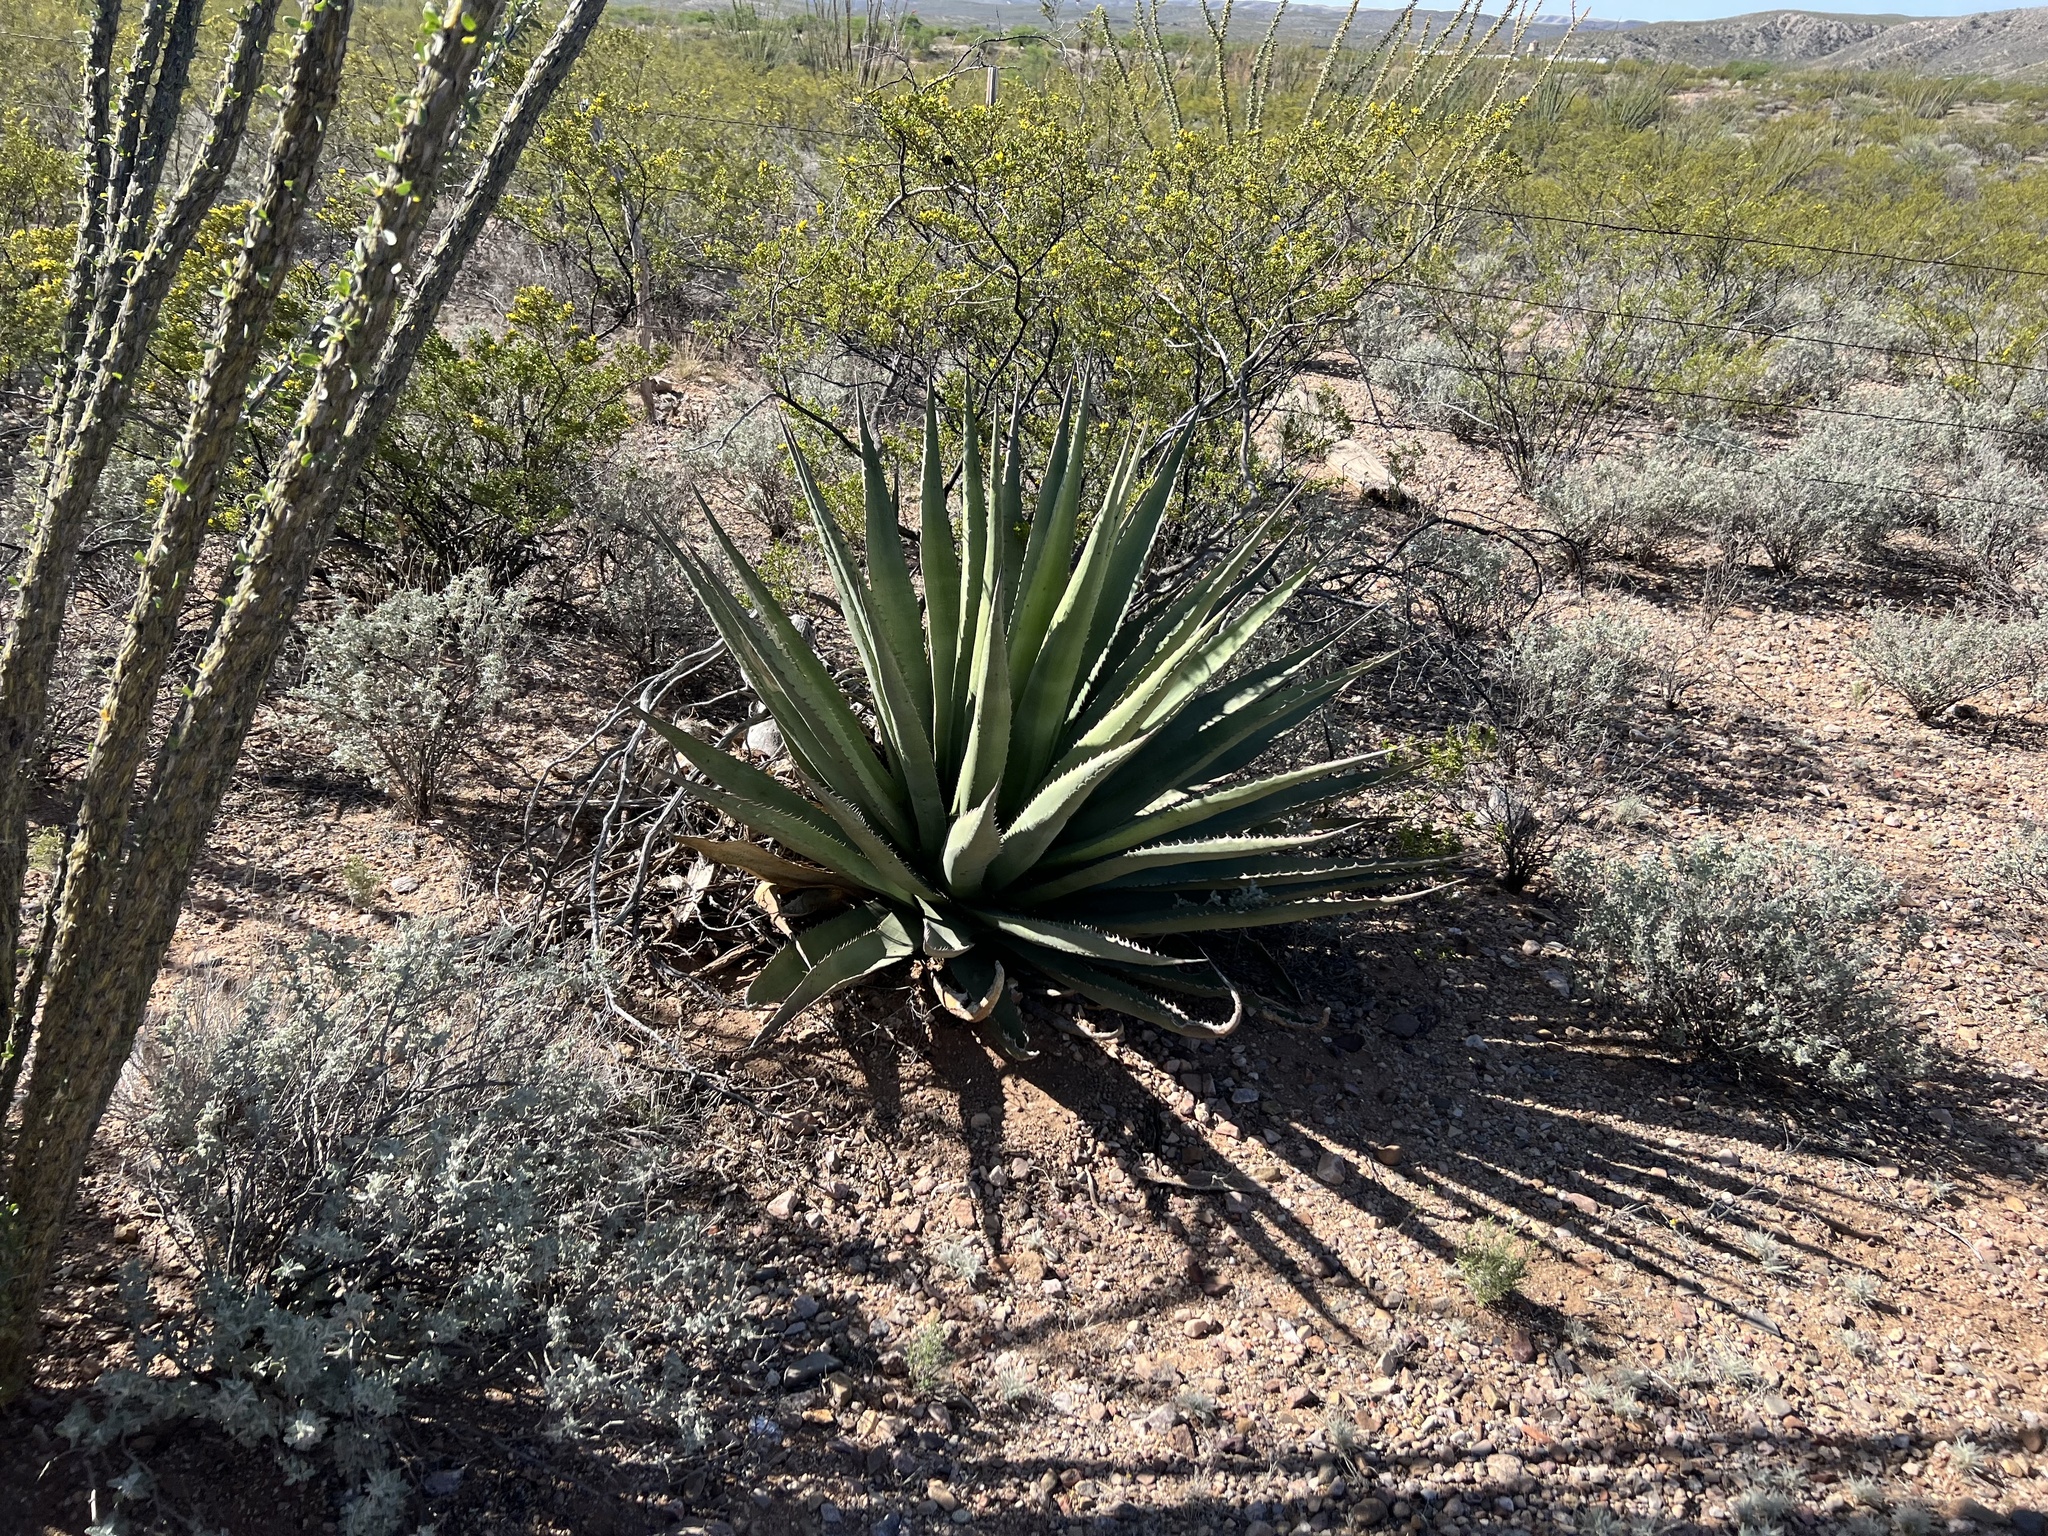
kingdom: Plantae
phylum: Tracheophyta
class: Liliopsida
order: Asparagales
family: Asparagaceae
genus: Agave
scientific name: Agave palmeri
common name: Palmer agave
